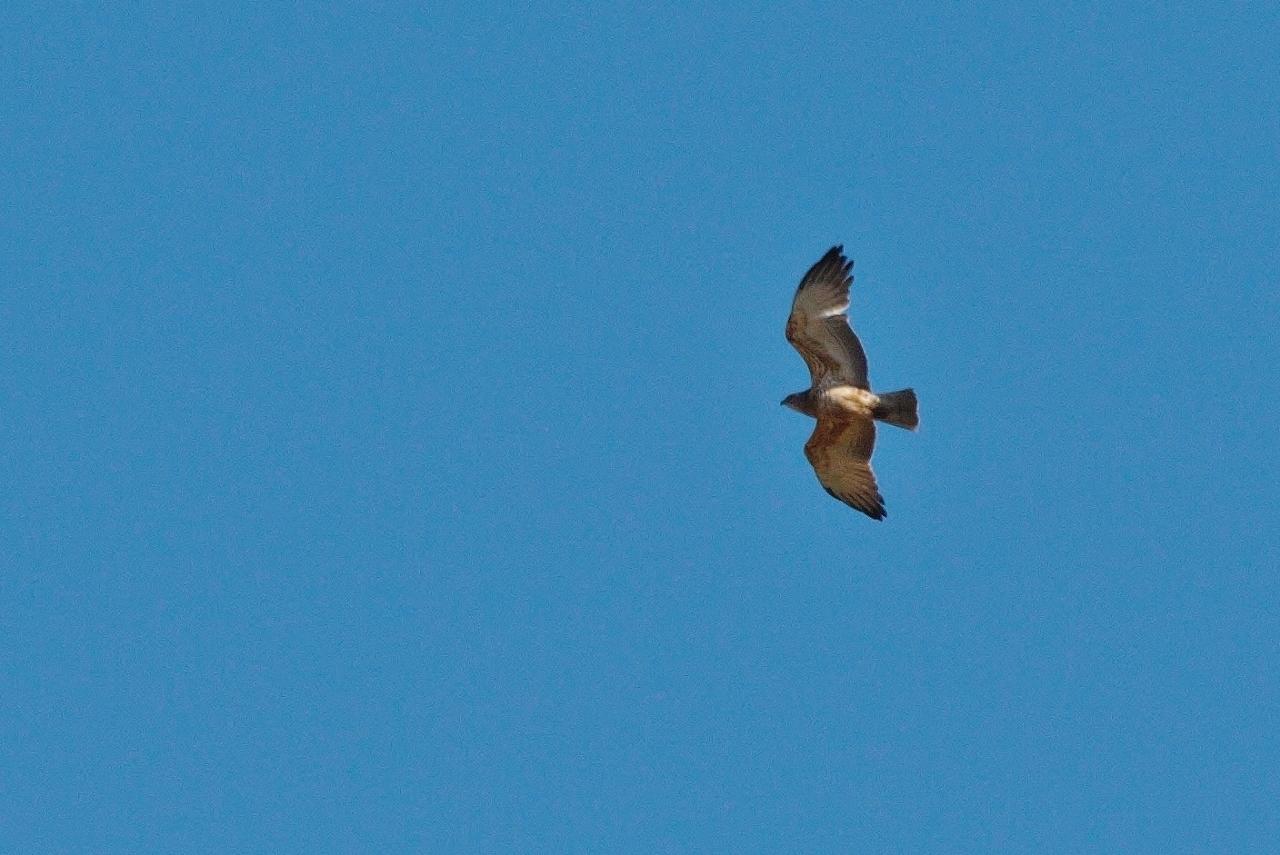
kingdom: Animalia
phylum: Chordata
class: Aves
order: Accipitriformes
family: Accipitridae
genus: Circaetus
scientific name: Circaetus pectoralis
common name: Black-chested snake eagle
